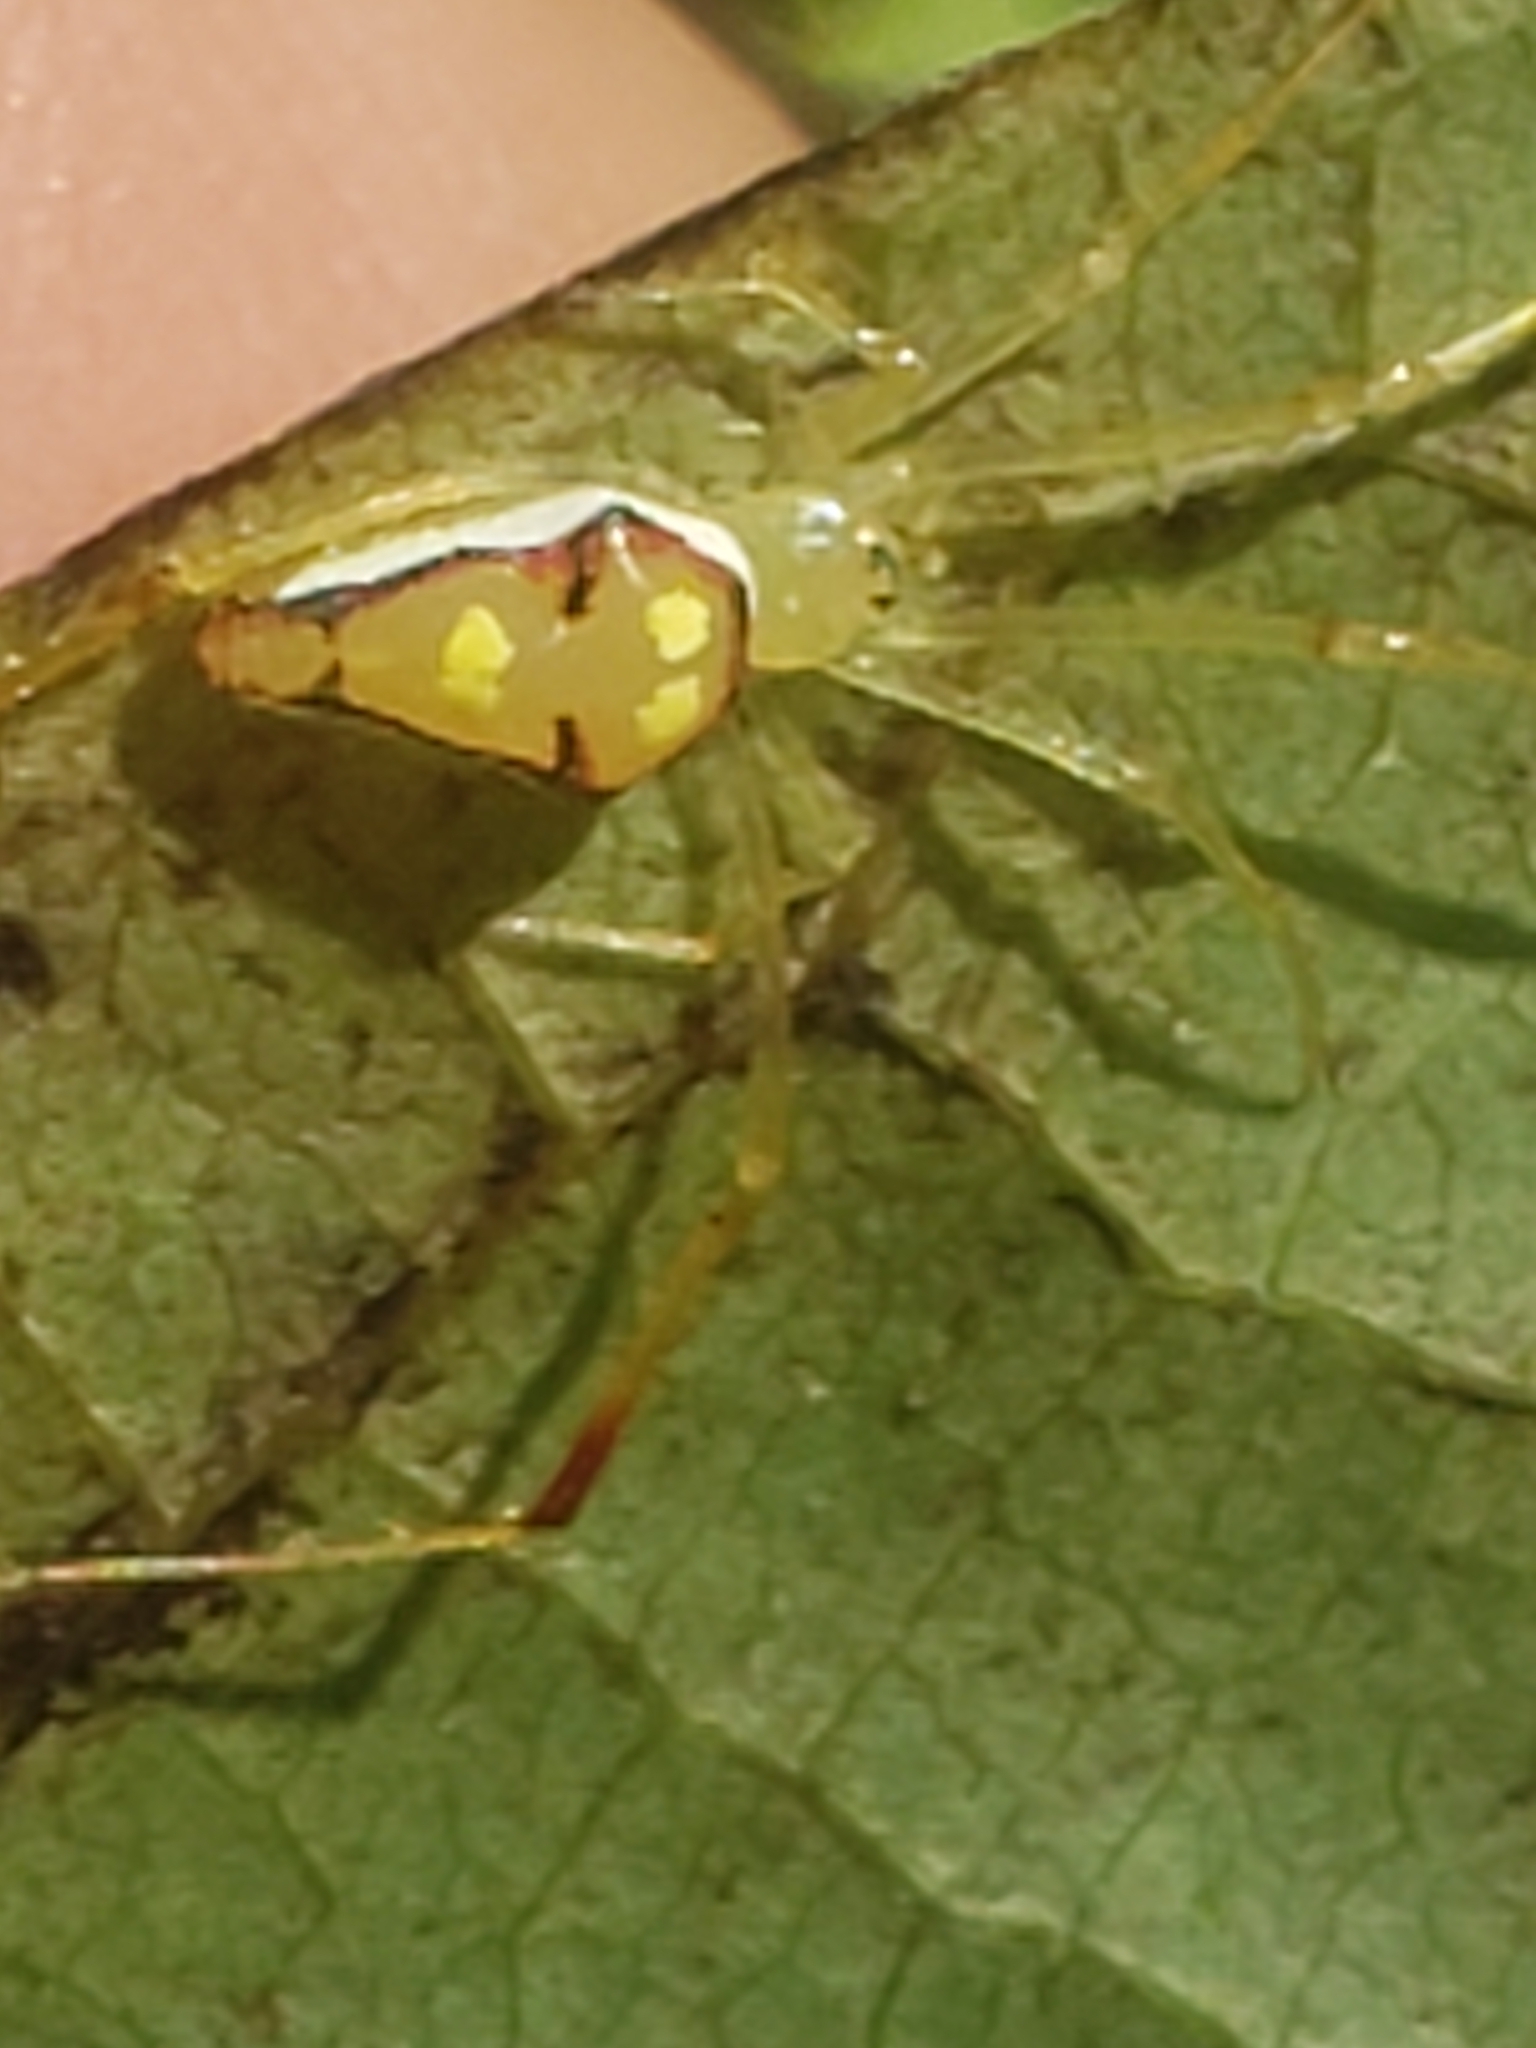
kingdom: Animalia
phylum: Arthropoda
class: Arachnida
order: Araneae
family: Theridiidae
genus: Spintharus
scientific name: Spintharus flavidus
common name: Cobweb spiders
